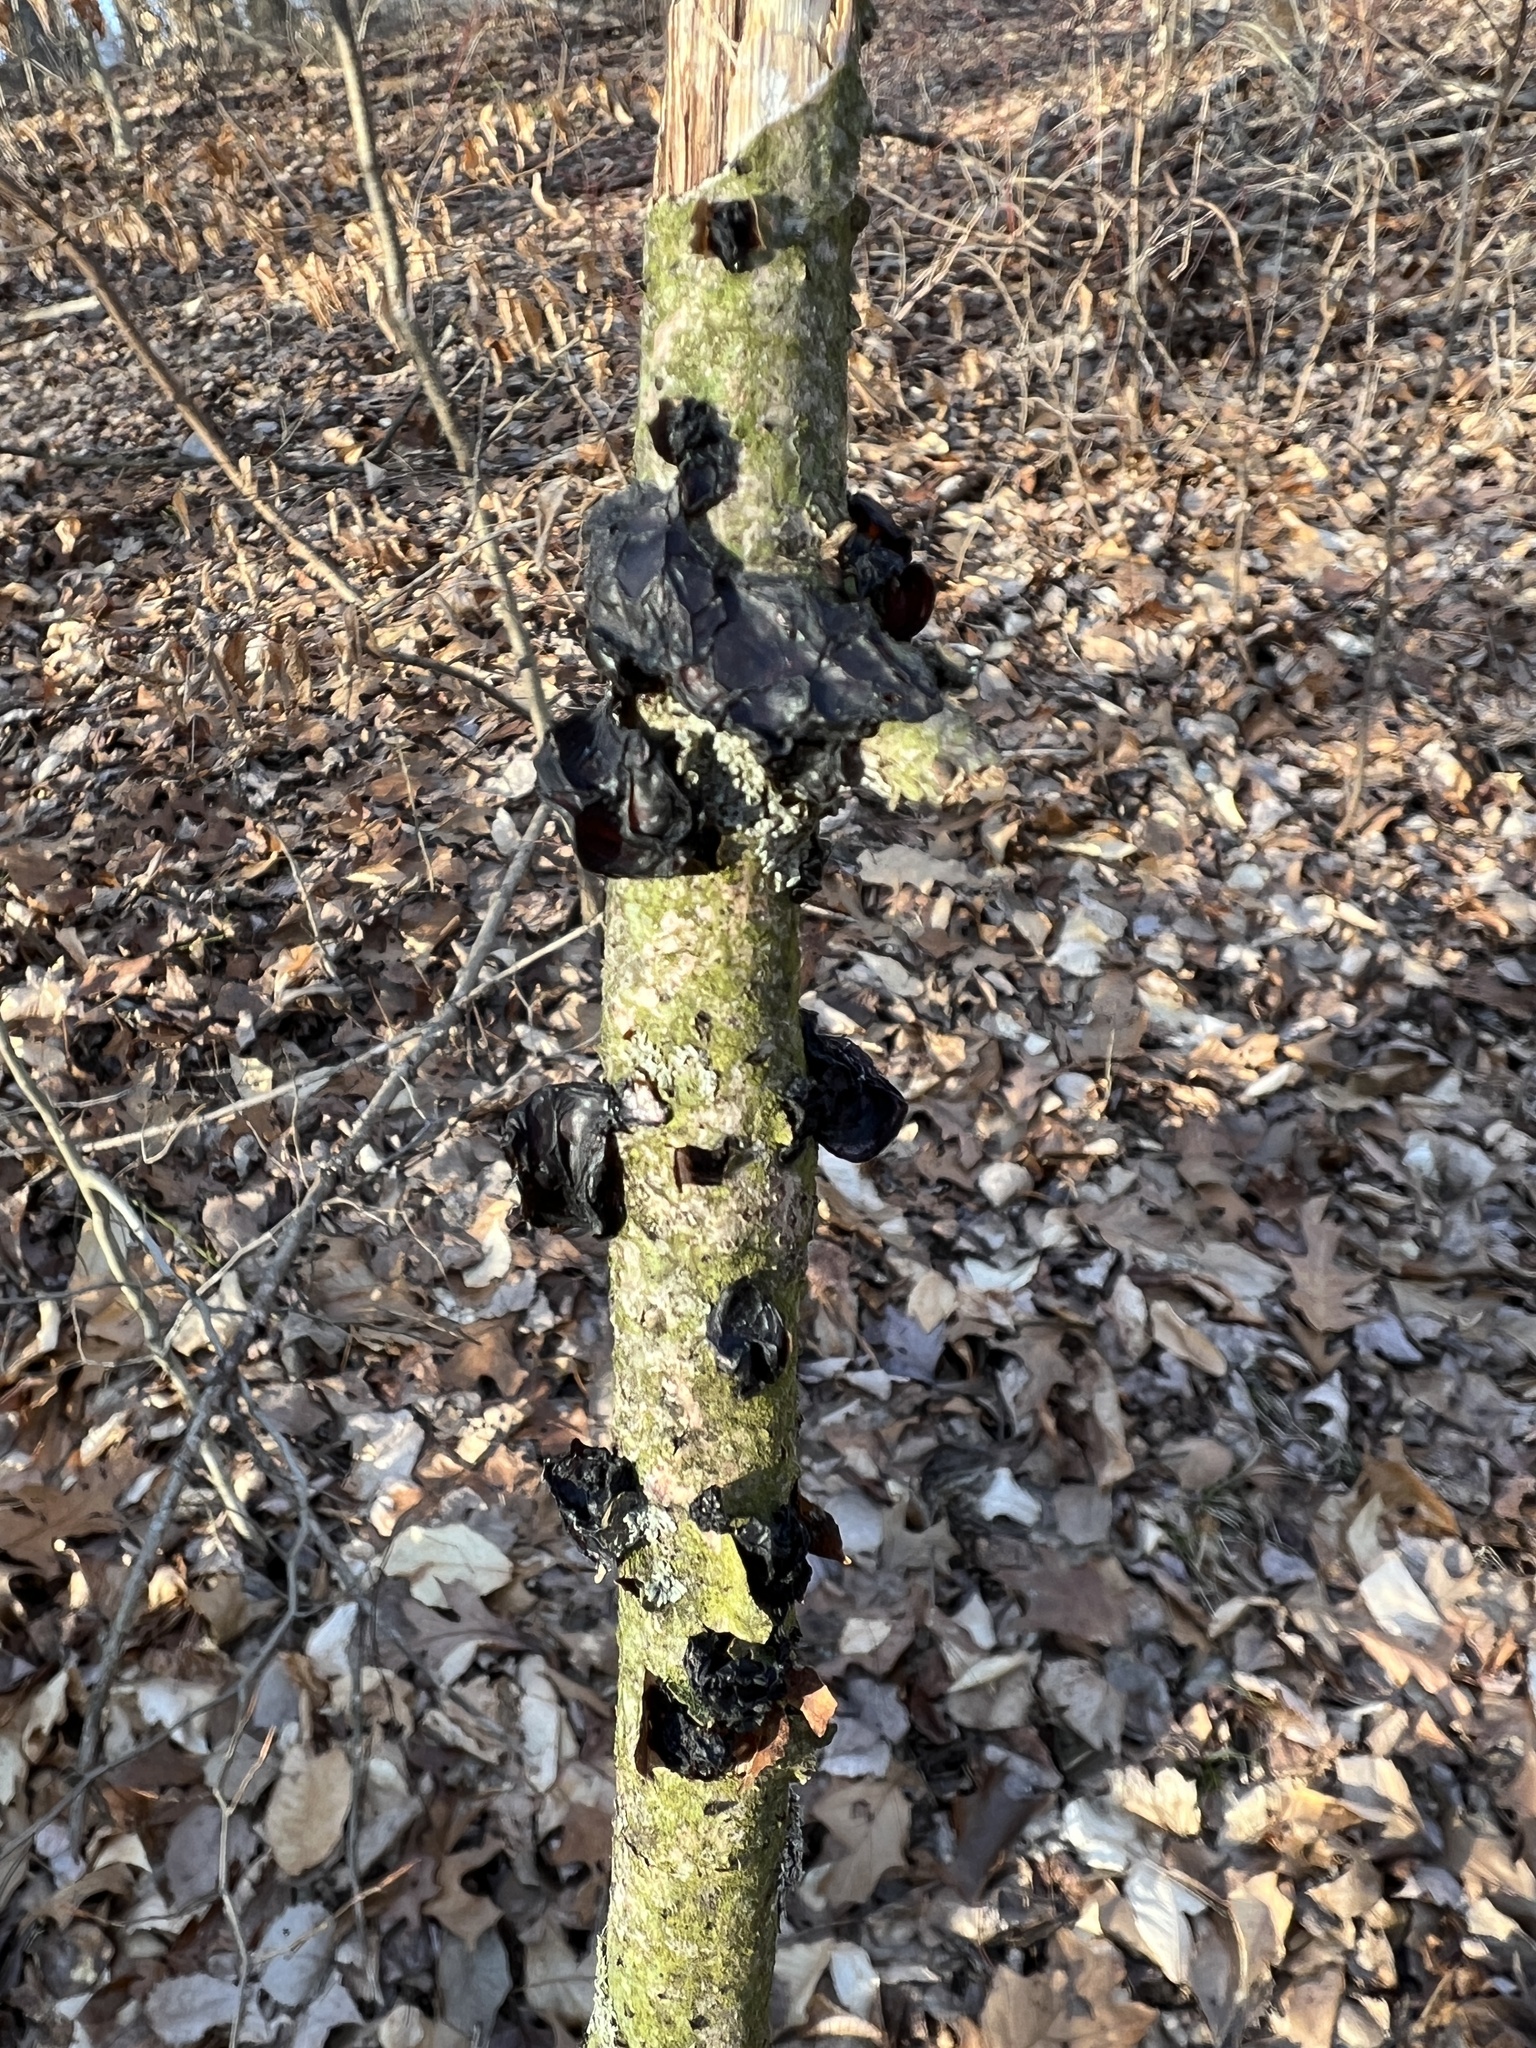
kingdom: Fungi
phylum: Basidiomycota
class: Agaricomycetes
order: Auriculariales
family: Auriculariaceae
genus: Exidia
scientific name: Exidia
